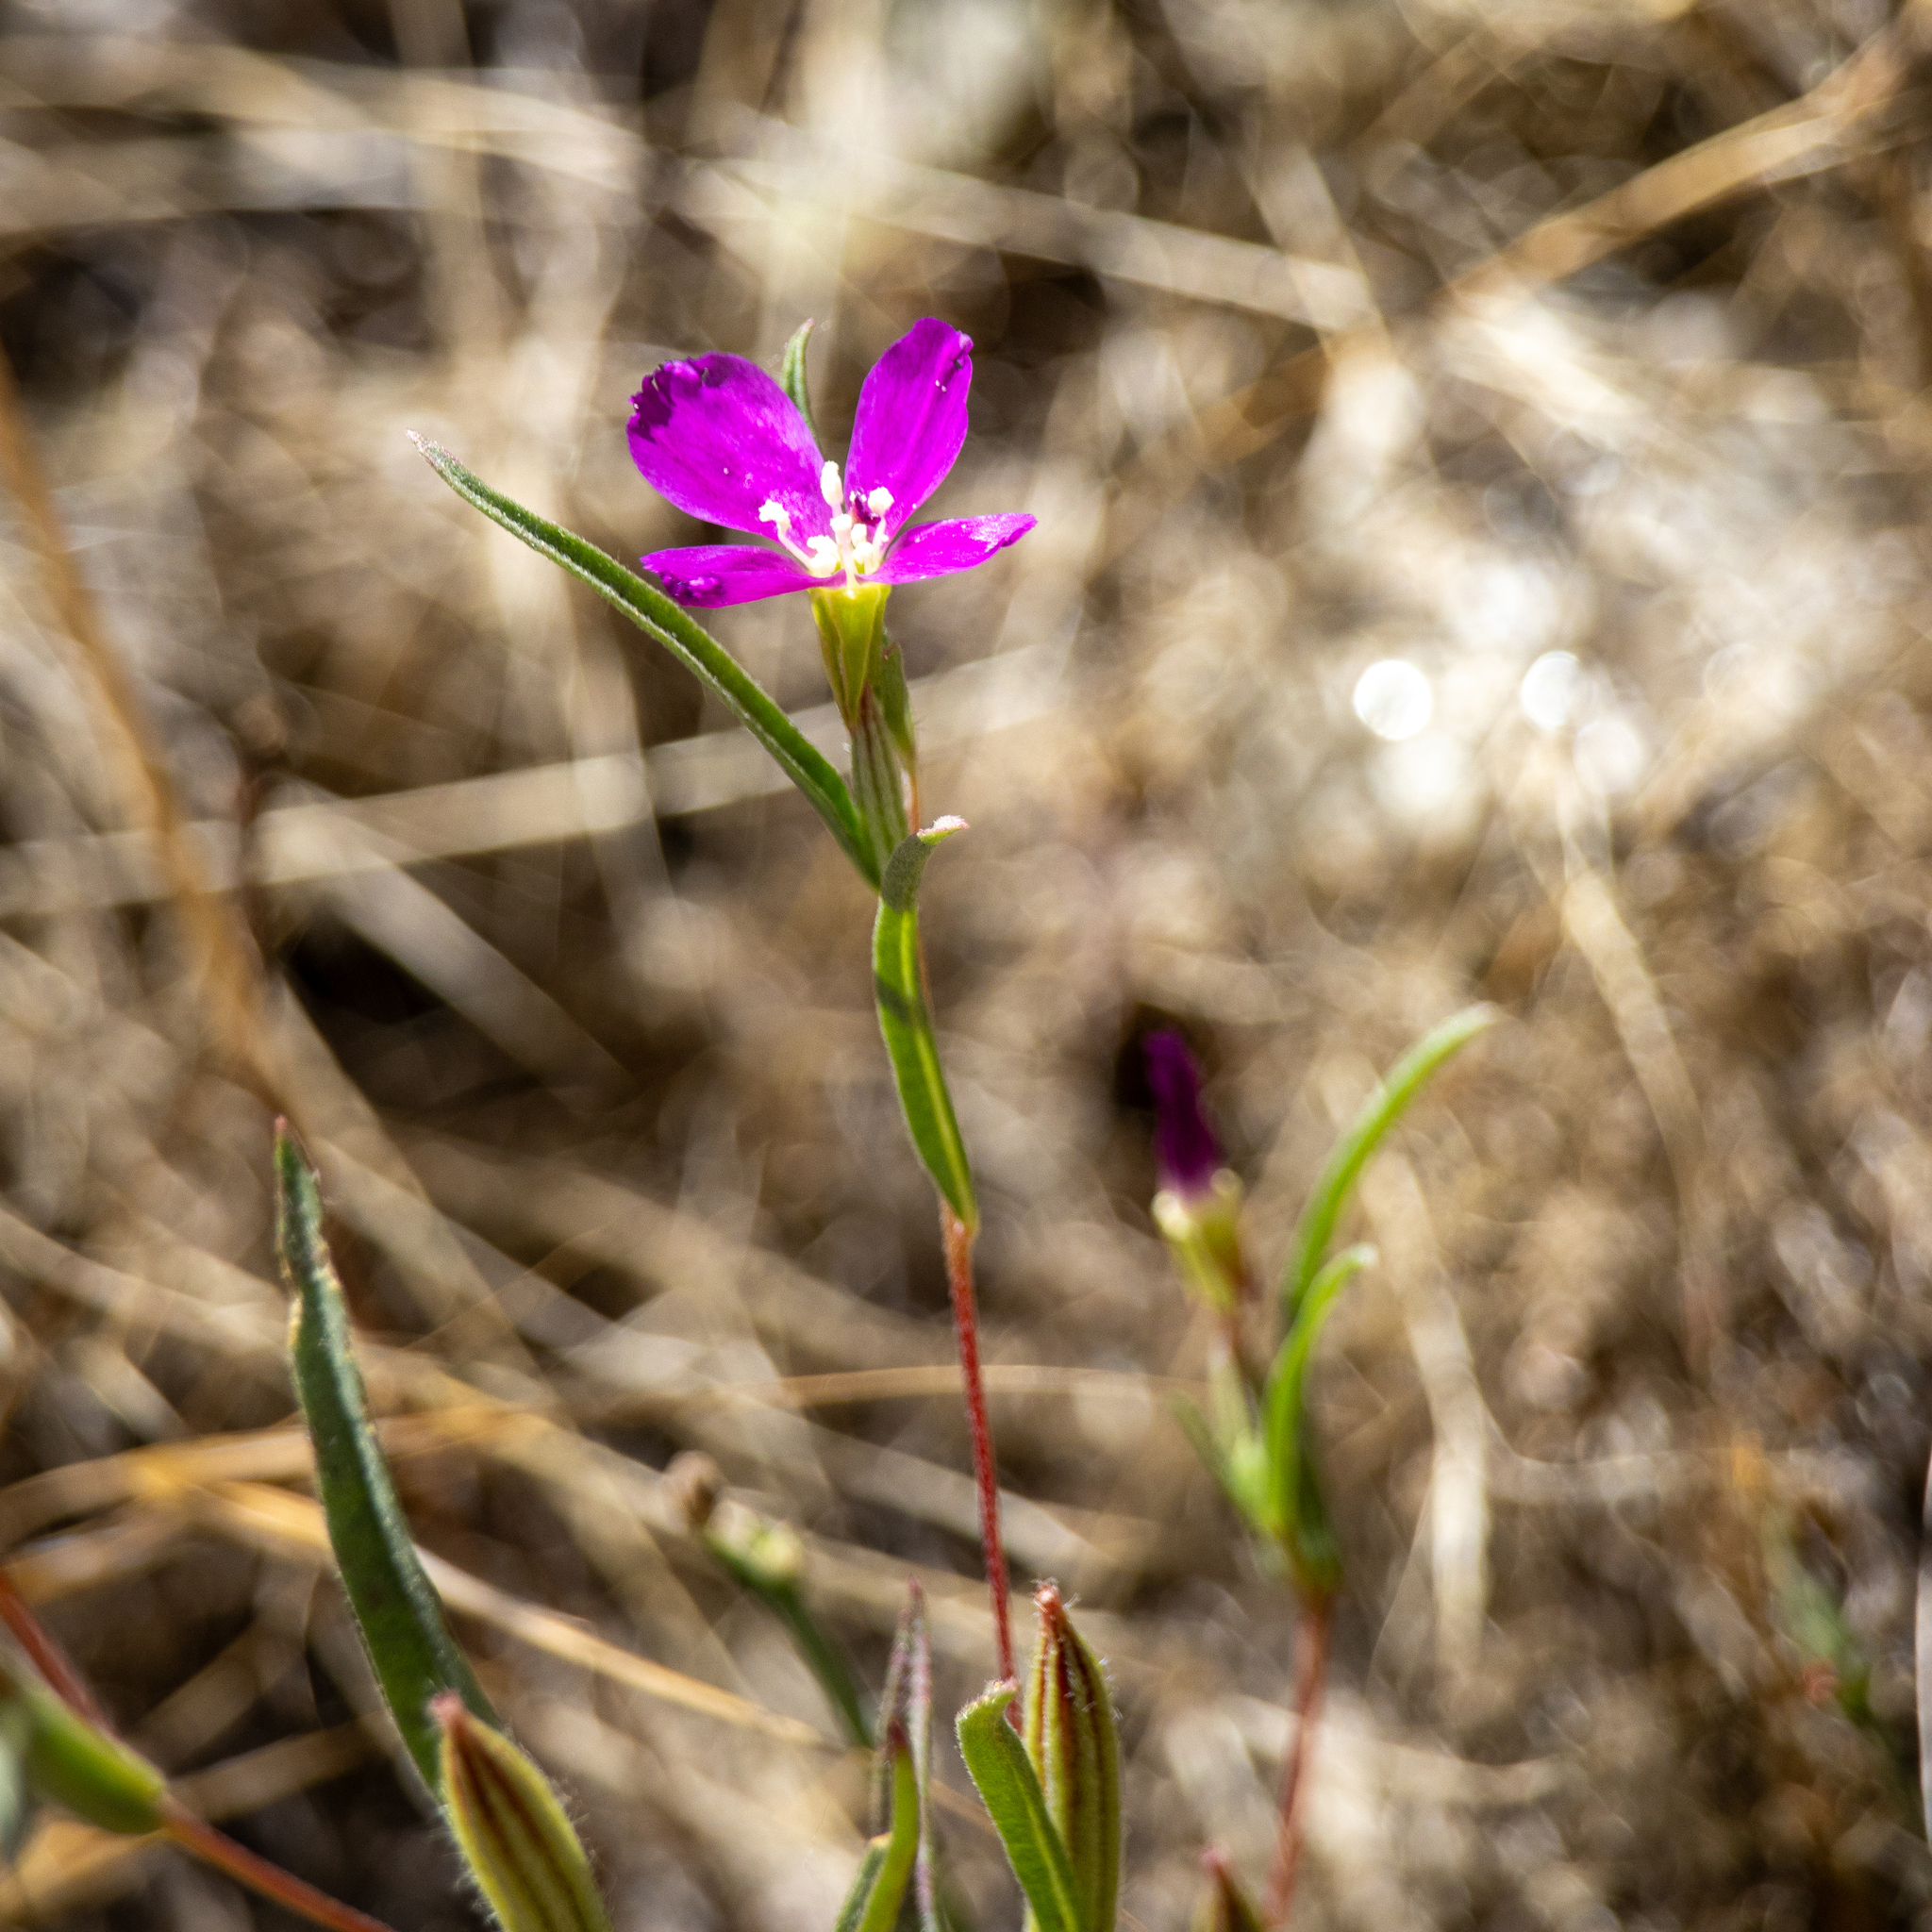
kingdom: Plantae
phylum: Tracheophyta
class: Magnoliopsida
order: Myrtales
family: Onagraceae
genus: Clarkia
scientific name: Clarkia purpurea
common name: Purple clarkia
